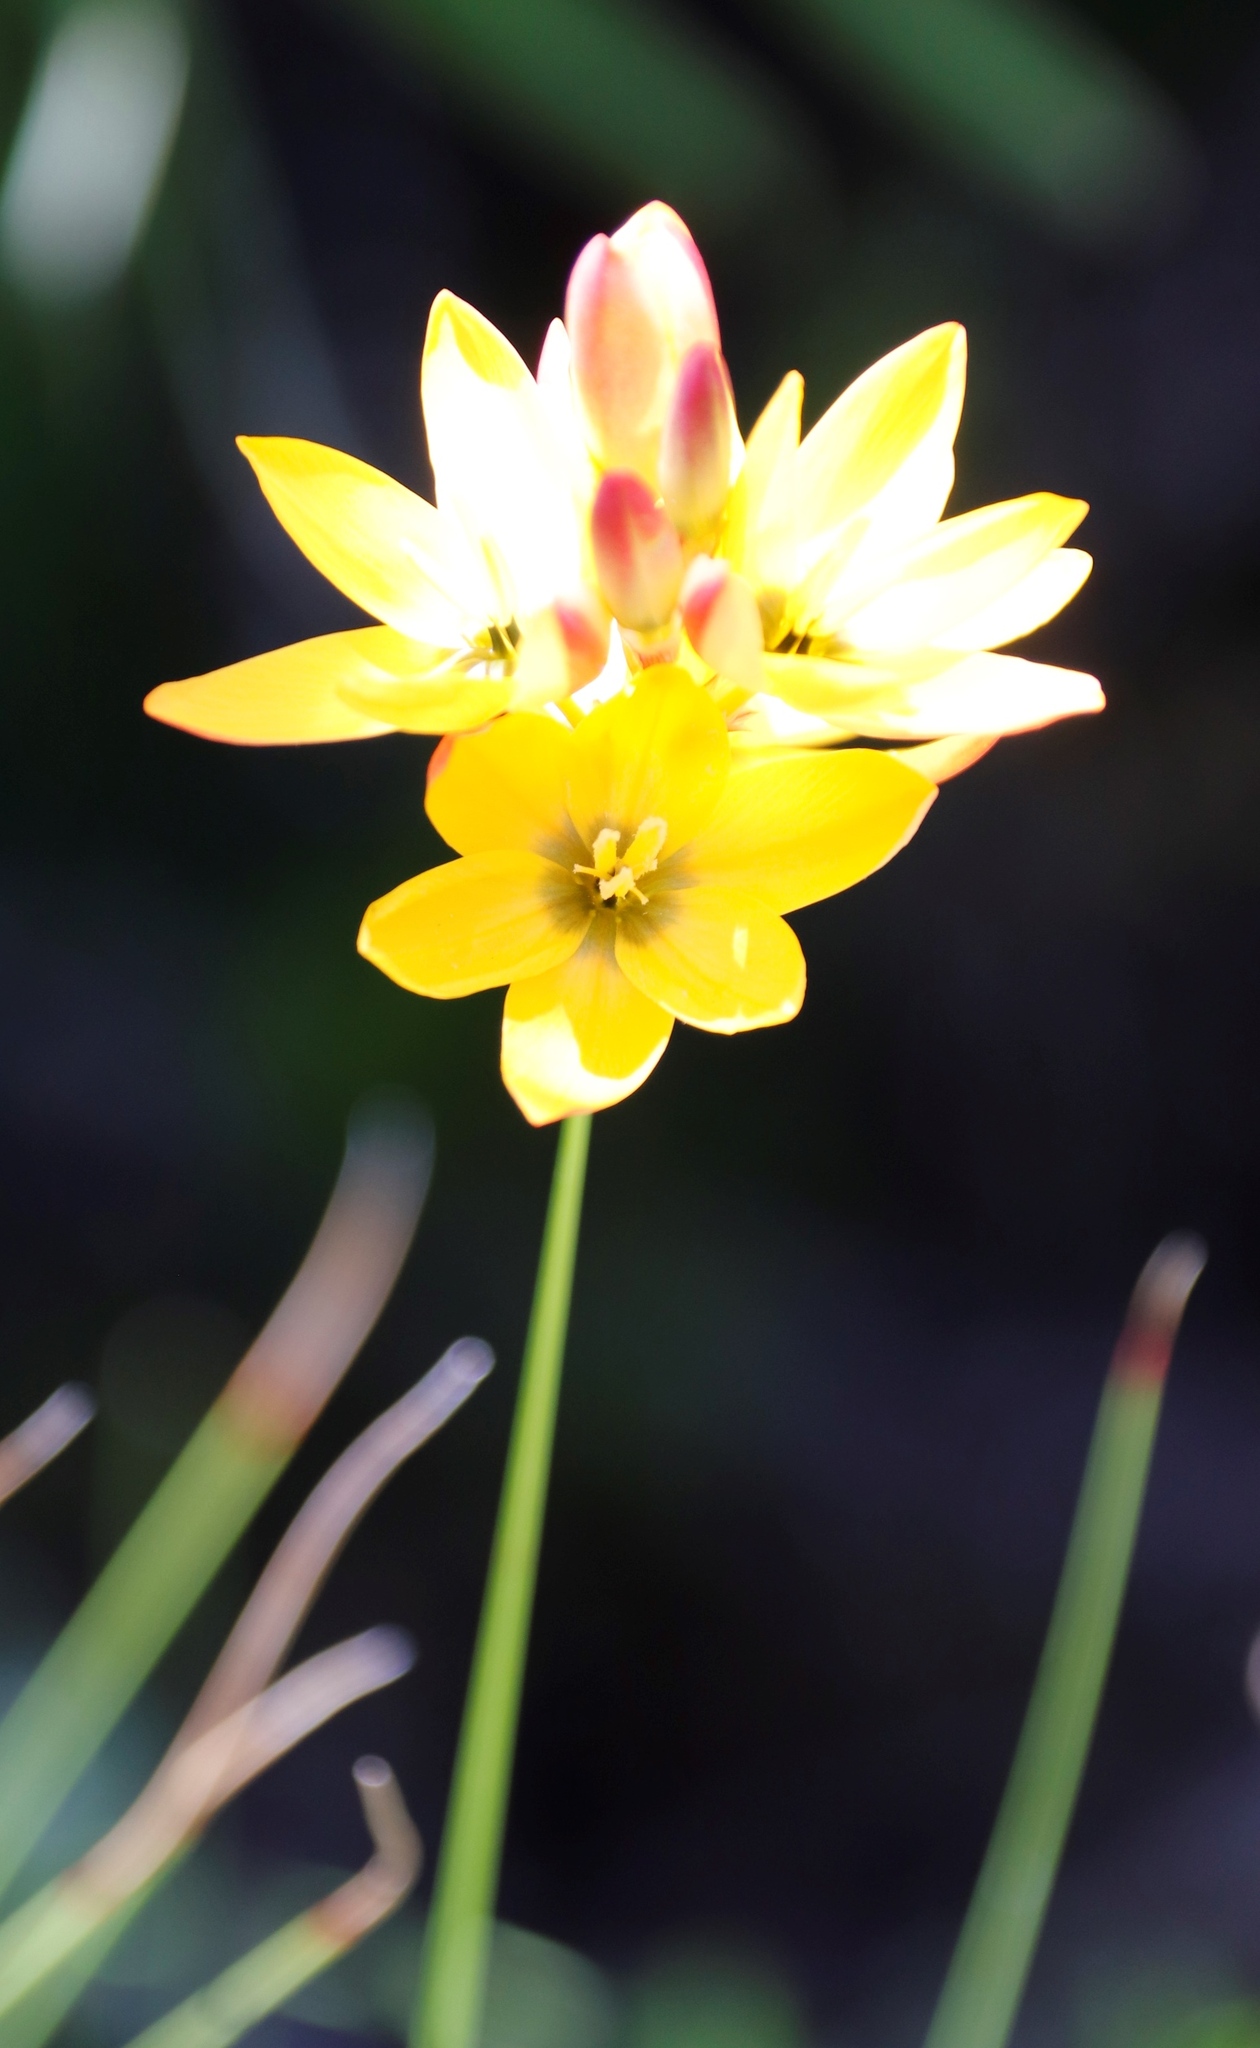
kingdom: Plantae
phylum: Tracheophyta
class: Liliopsida
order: Asparagales
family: Iridaceae
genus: Ixia
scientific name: Ixia dubia
